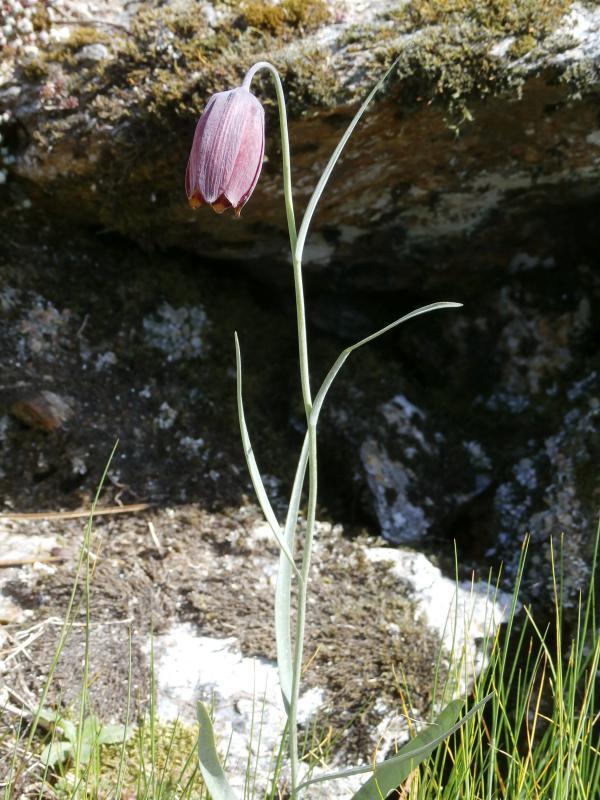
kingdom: Plantae
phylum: Tracheophyta
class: Liliopsida
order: Liliales
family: Liliaceae
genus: Fritillaria
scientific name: Fritillaria pyrenaica
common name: Pyrenean snake's-head
